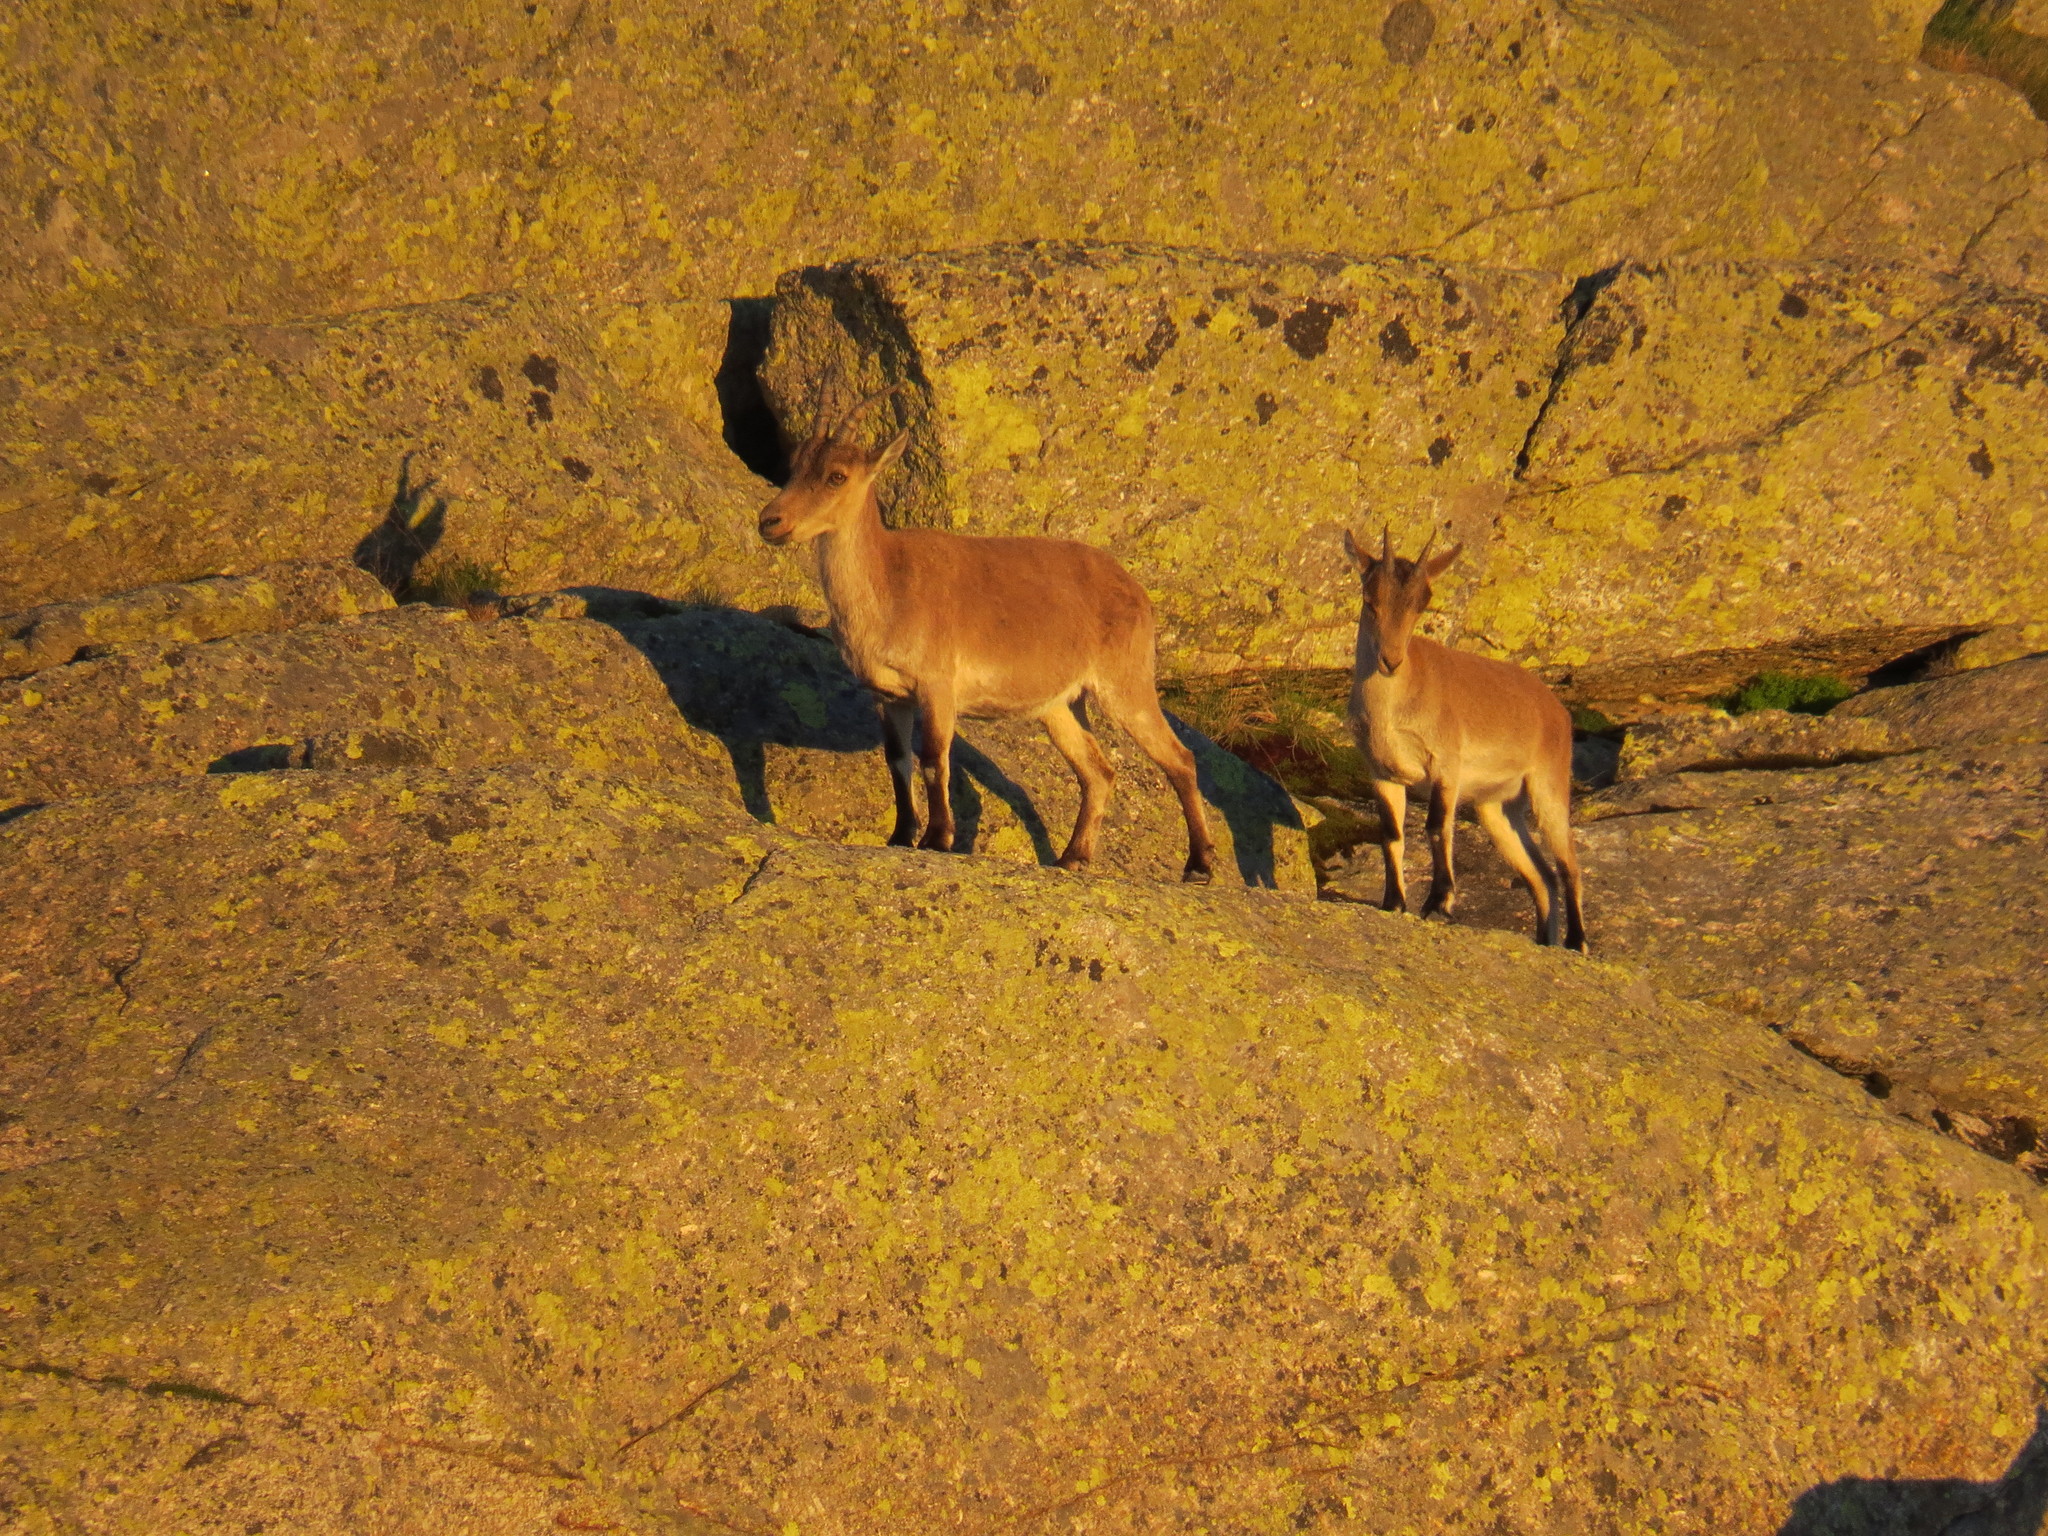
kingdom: Animalia
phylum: Chordata
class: Mammalia
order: Artiodactyla
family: Bovidae
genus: Capra
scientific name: Capra pyrenaica
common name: Spanish ibex
